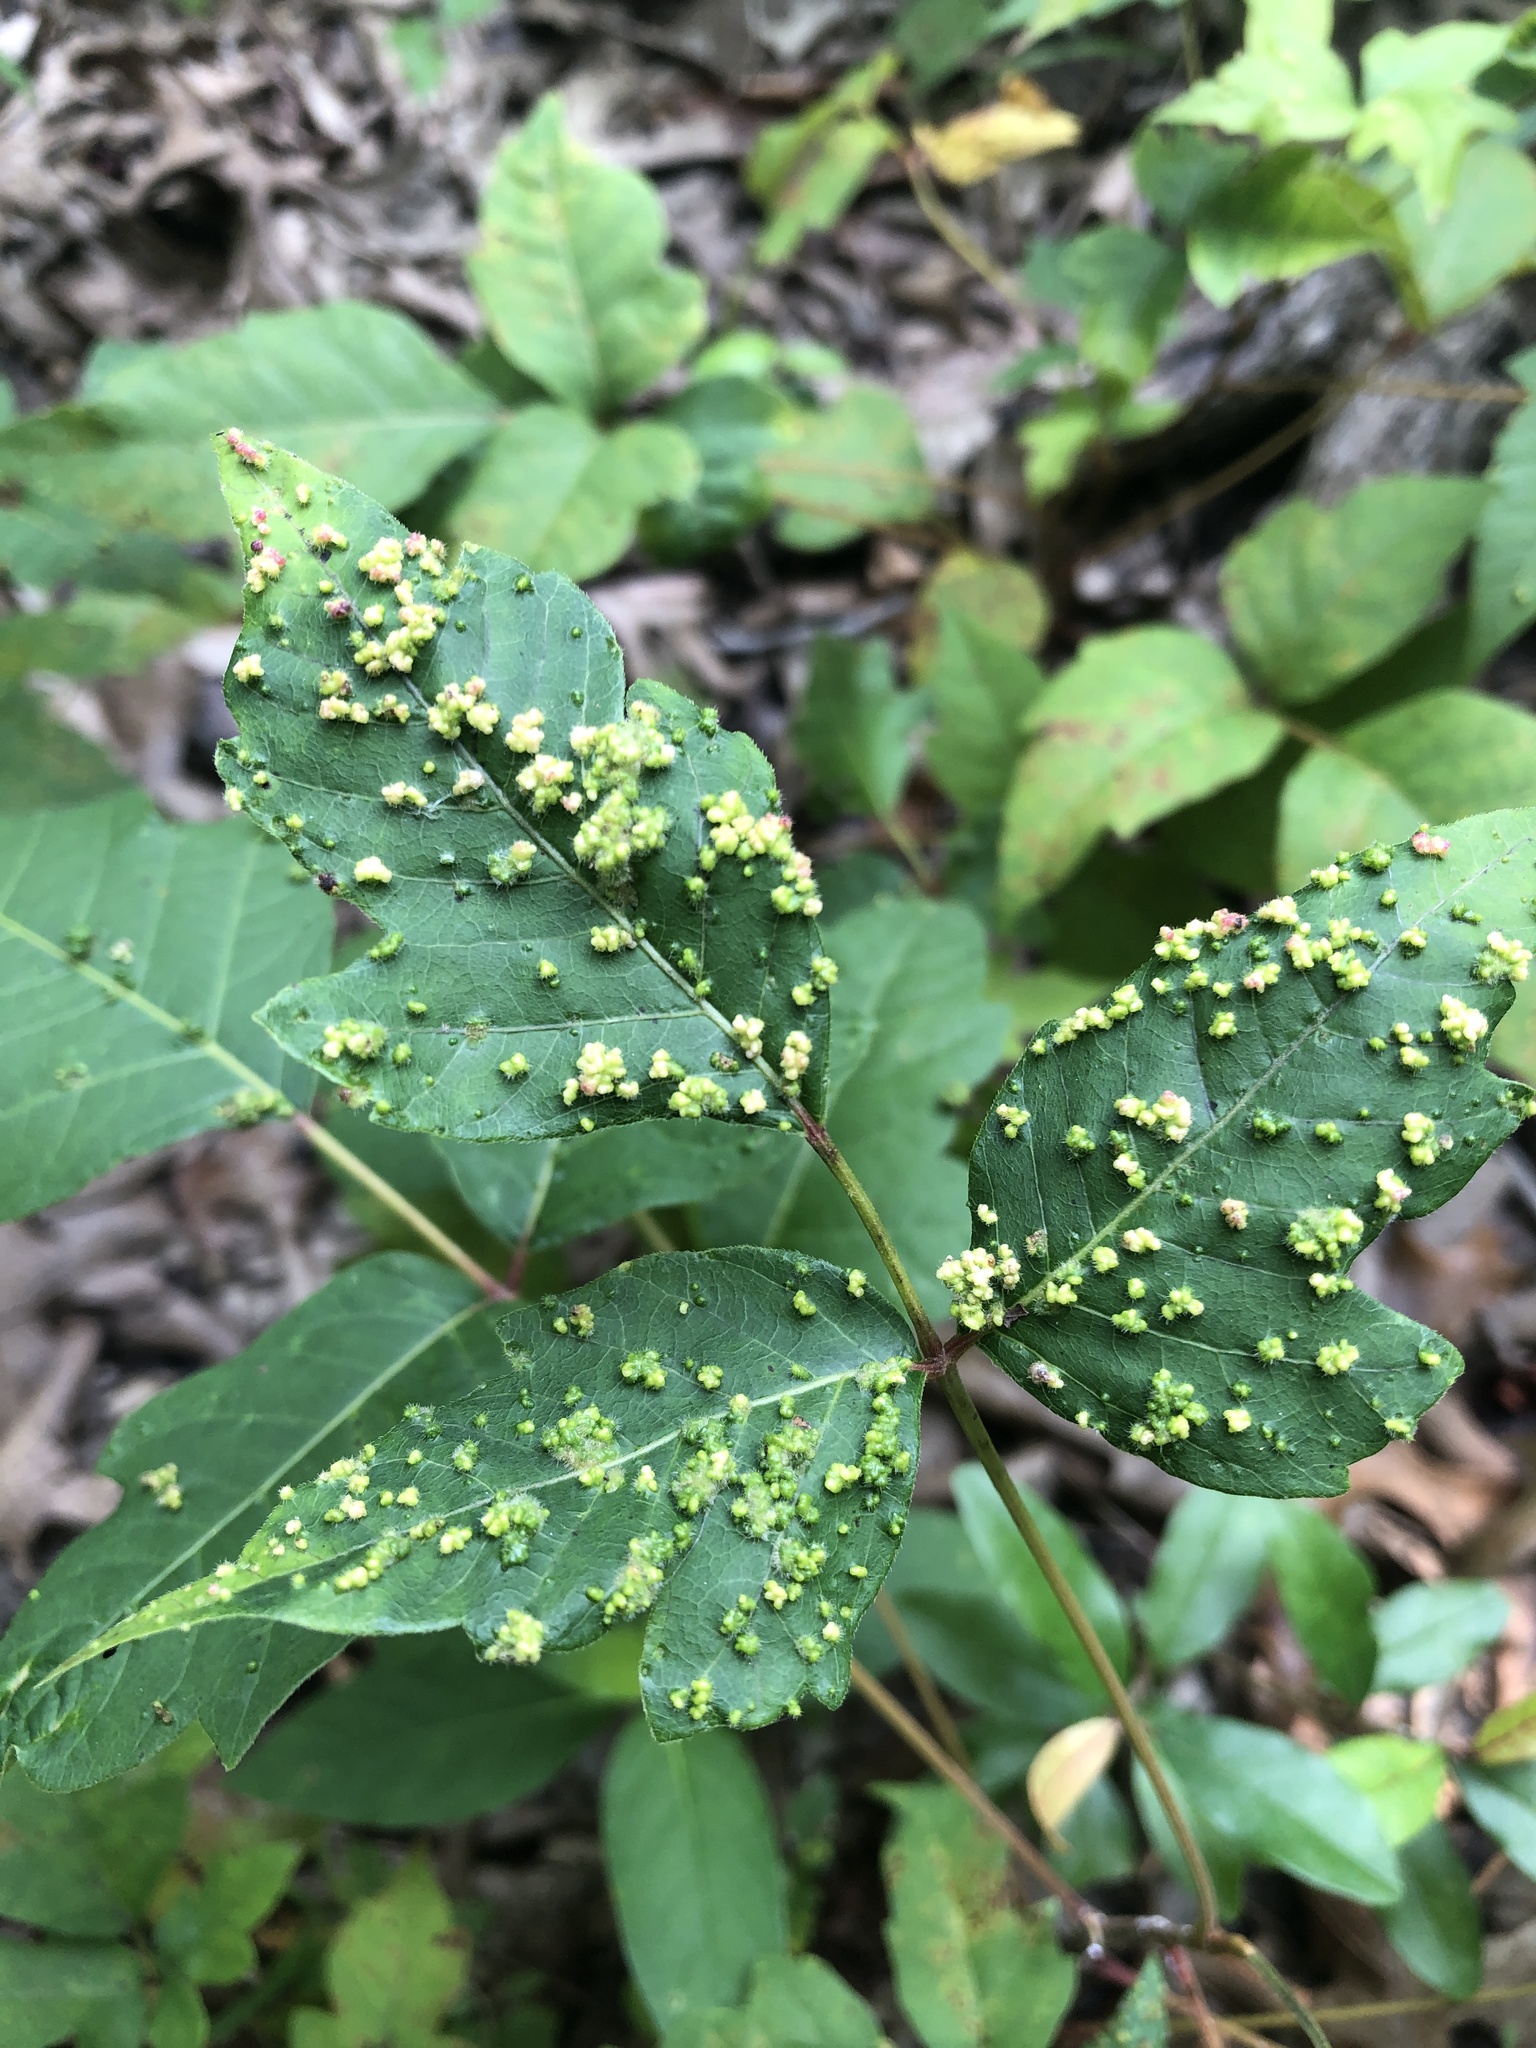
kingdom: Animalia
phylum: Arthropoda
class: Arachnida
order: Trombidiformes
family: Eriophyidae
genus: Aculops
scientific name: Aculops
